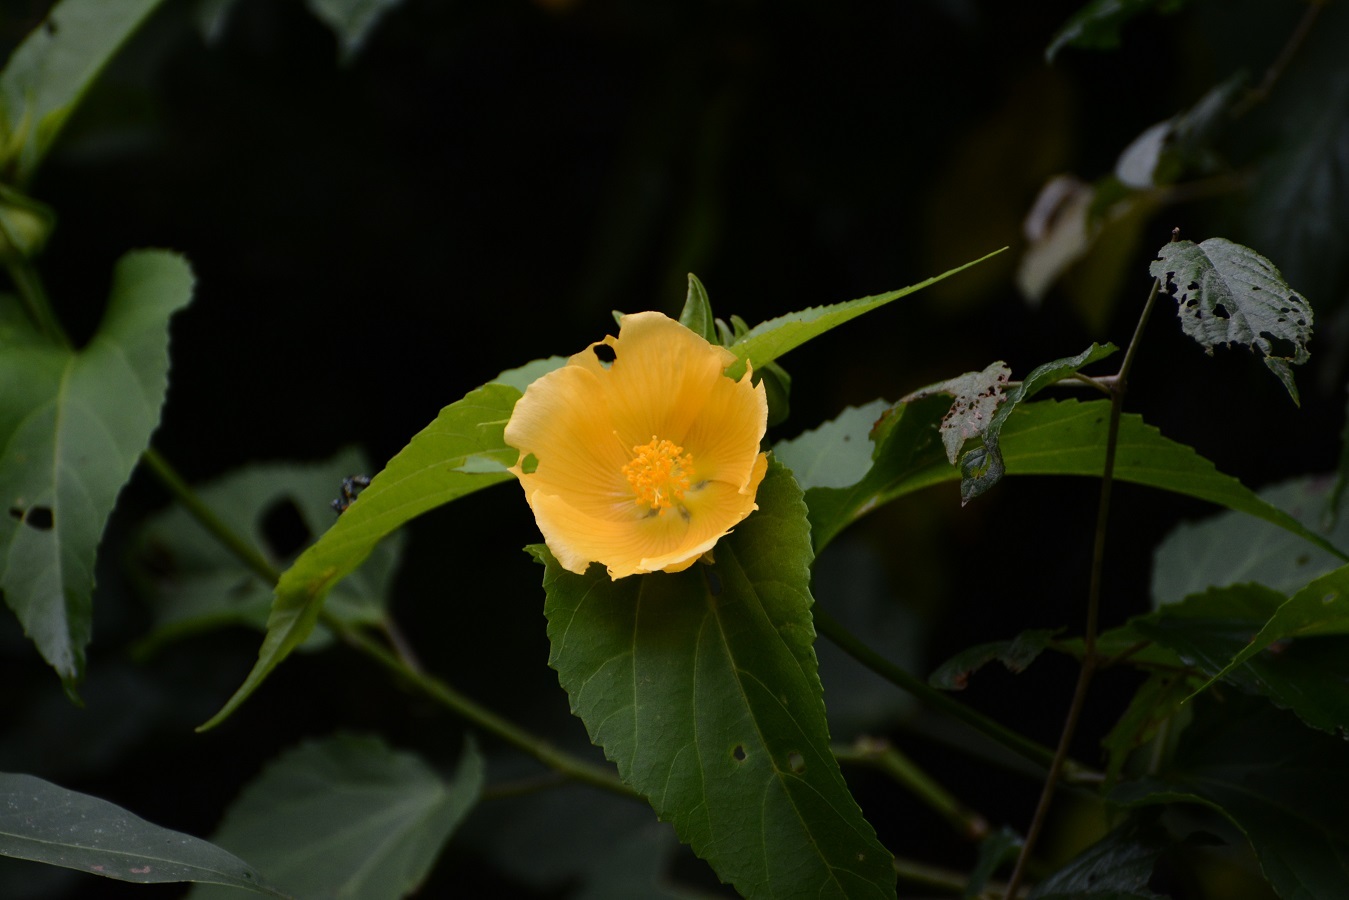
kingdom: Plantae
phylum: Tracheophyta
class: Magnoliopsida
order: Malvales
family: Malvaceae
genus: Dendrosida
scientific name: Dendrosida sharpiana
